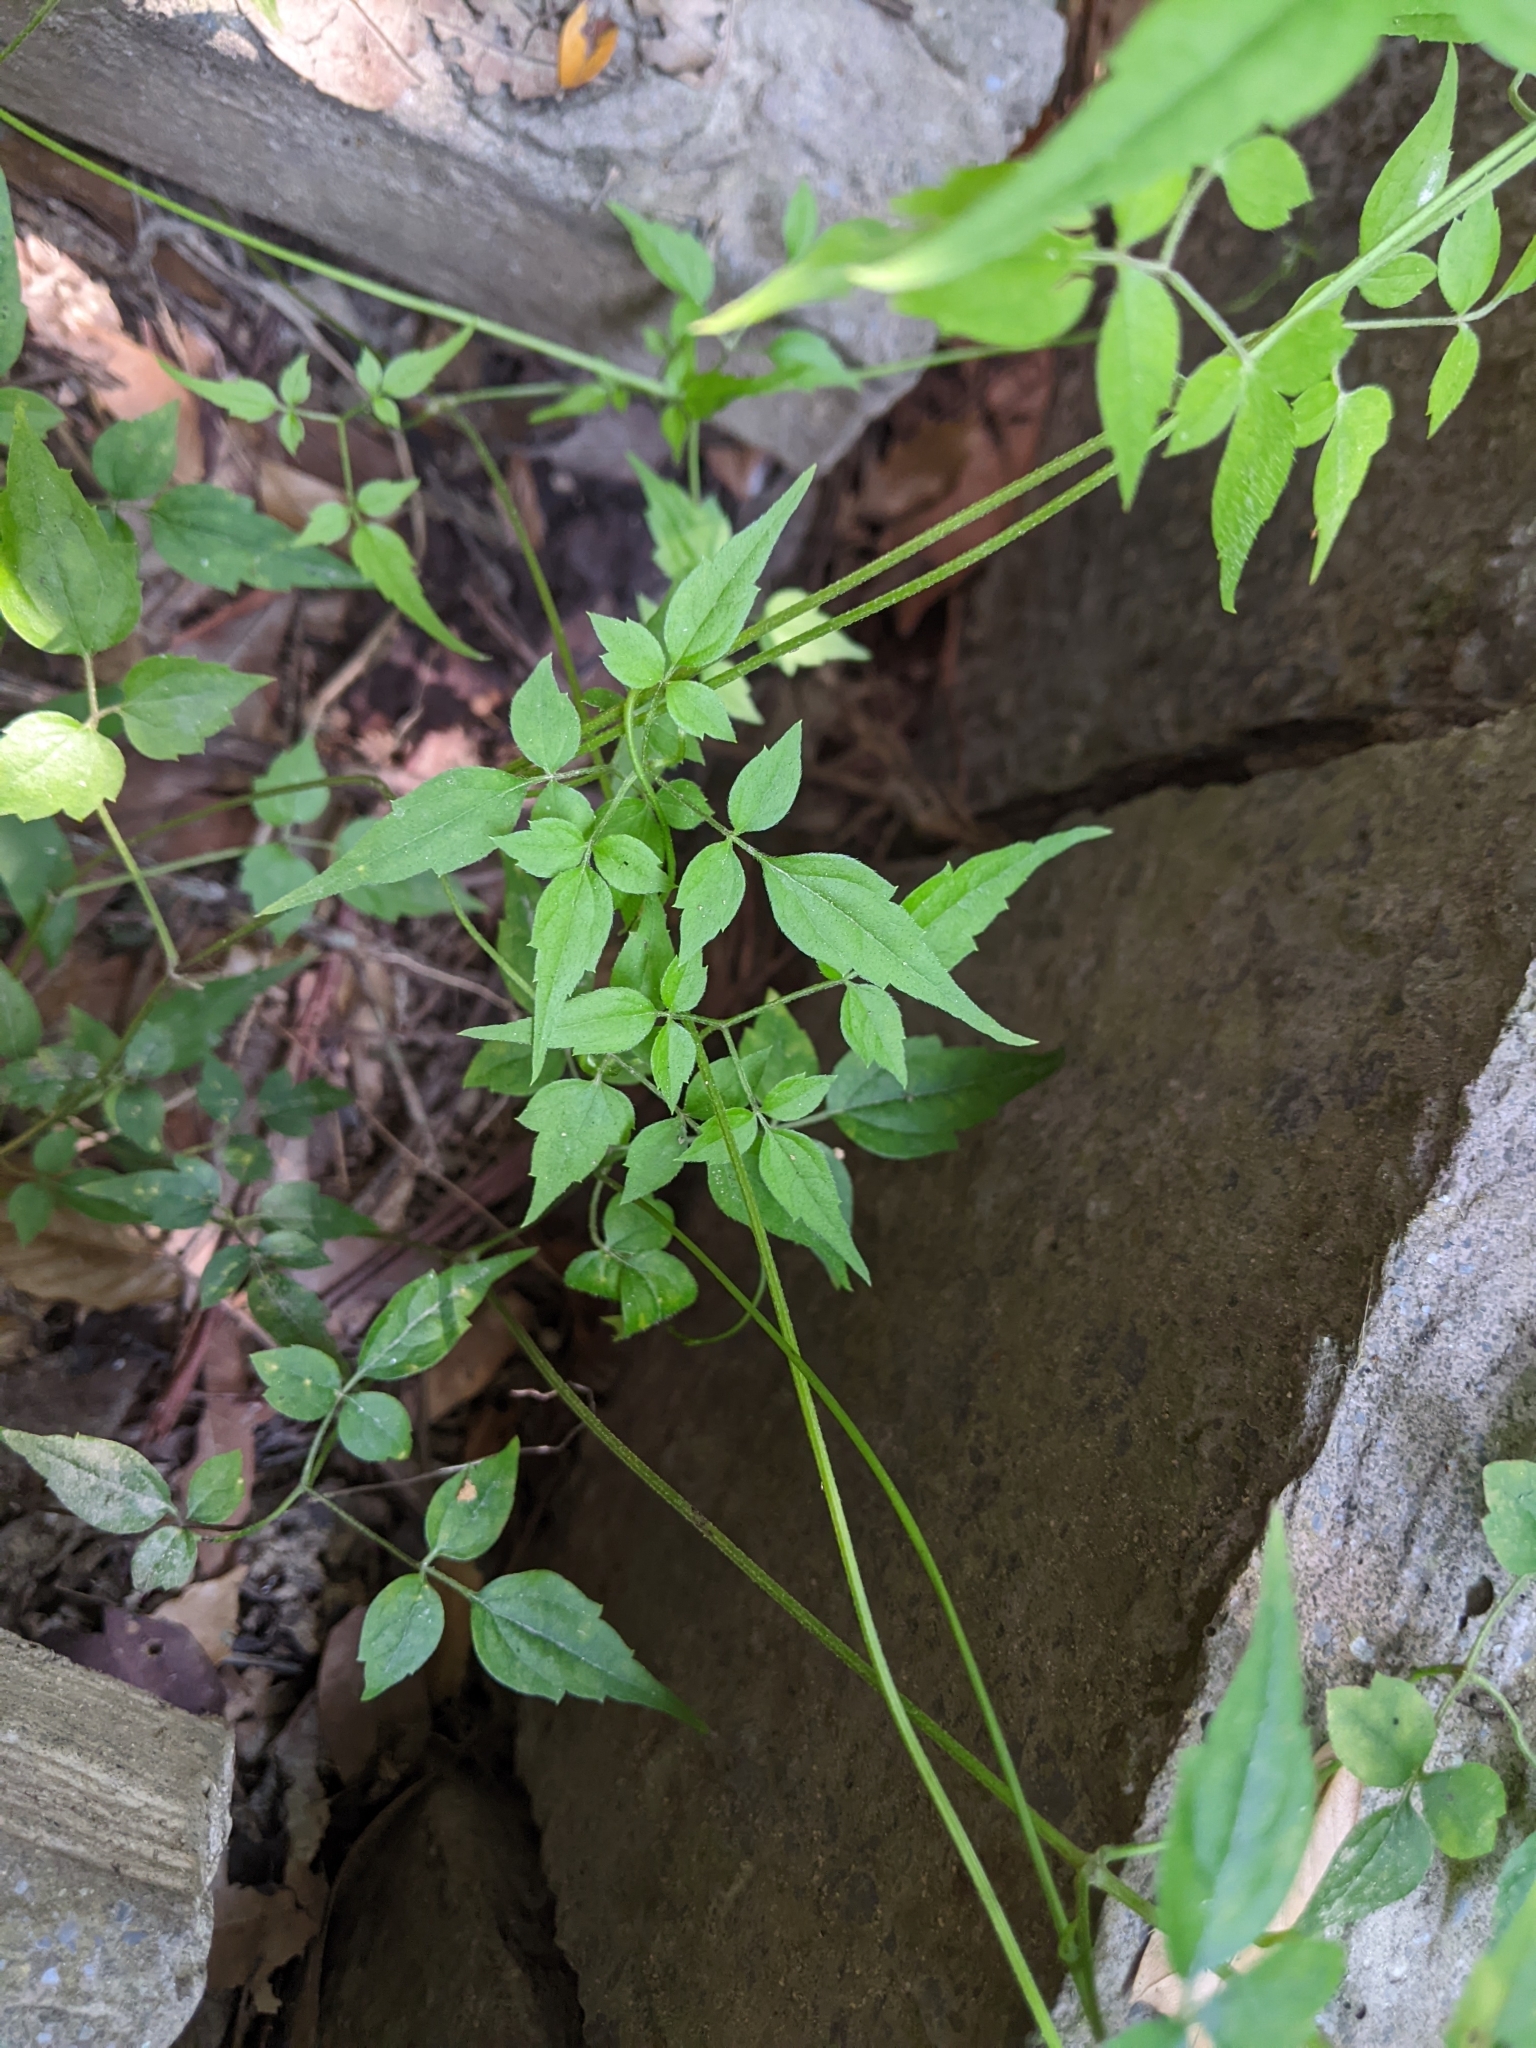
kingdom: Plantae
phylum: Tracheophyta
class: Magnoliopsida
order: Ranunculales
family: Ranunculaceae
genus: Clematis
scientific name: Clematis grata
